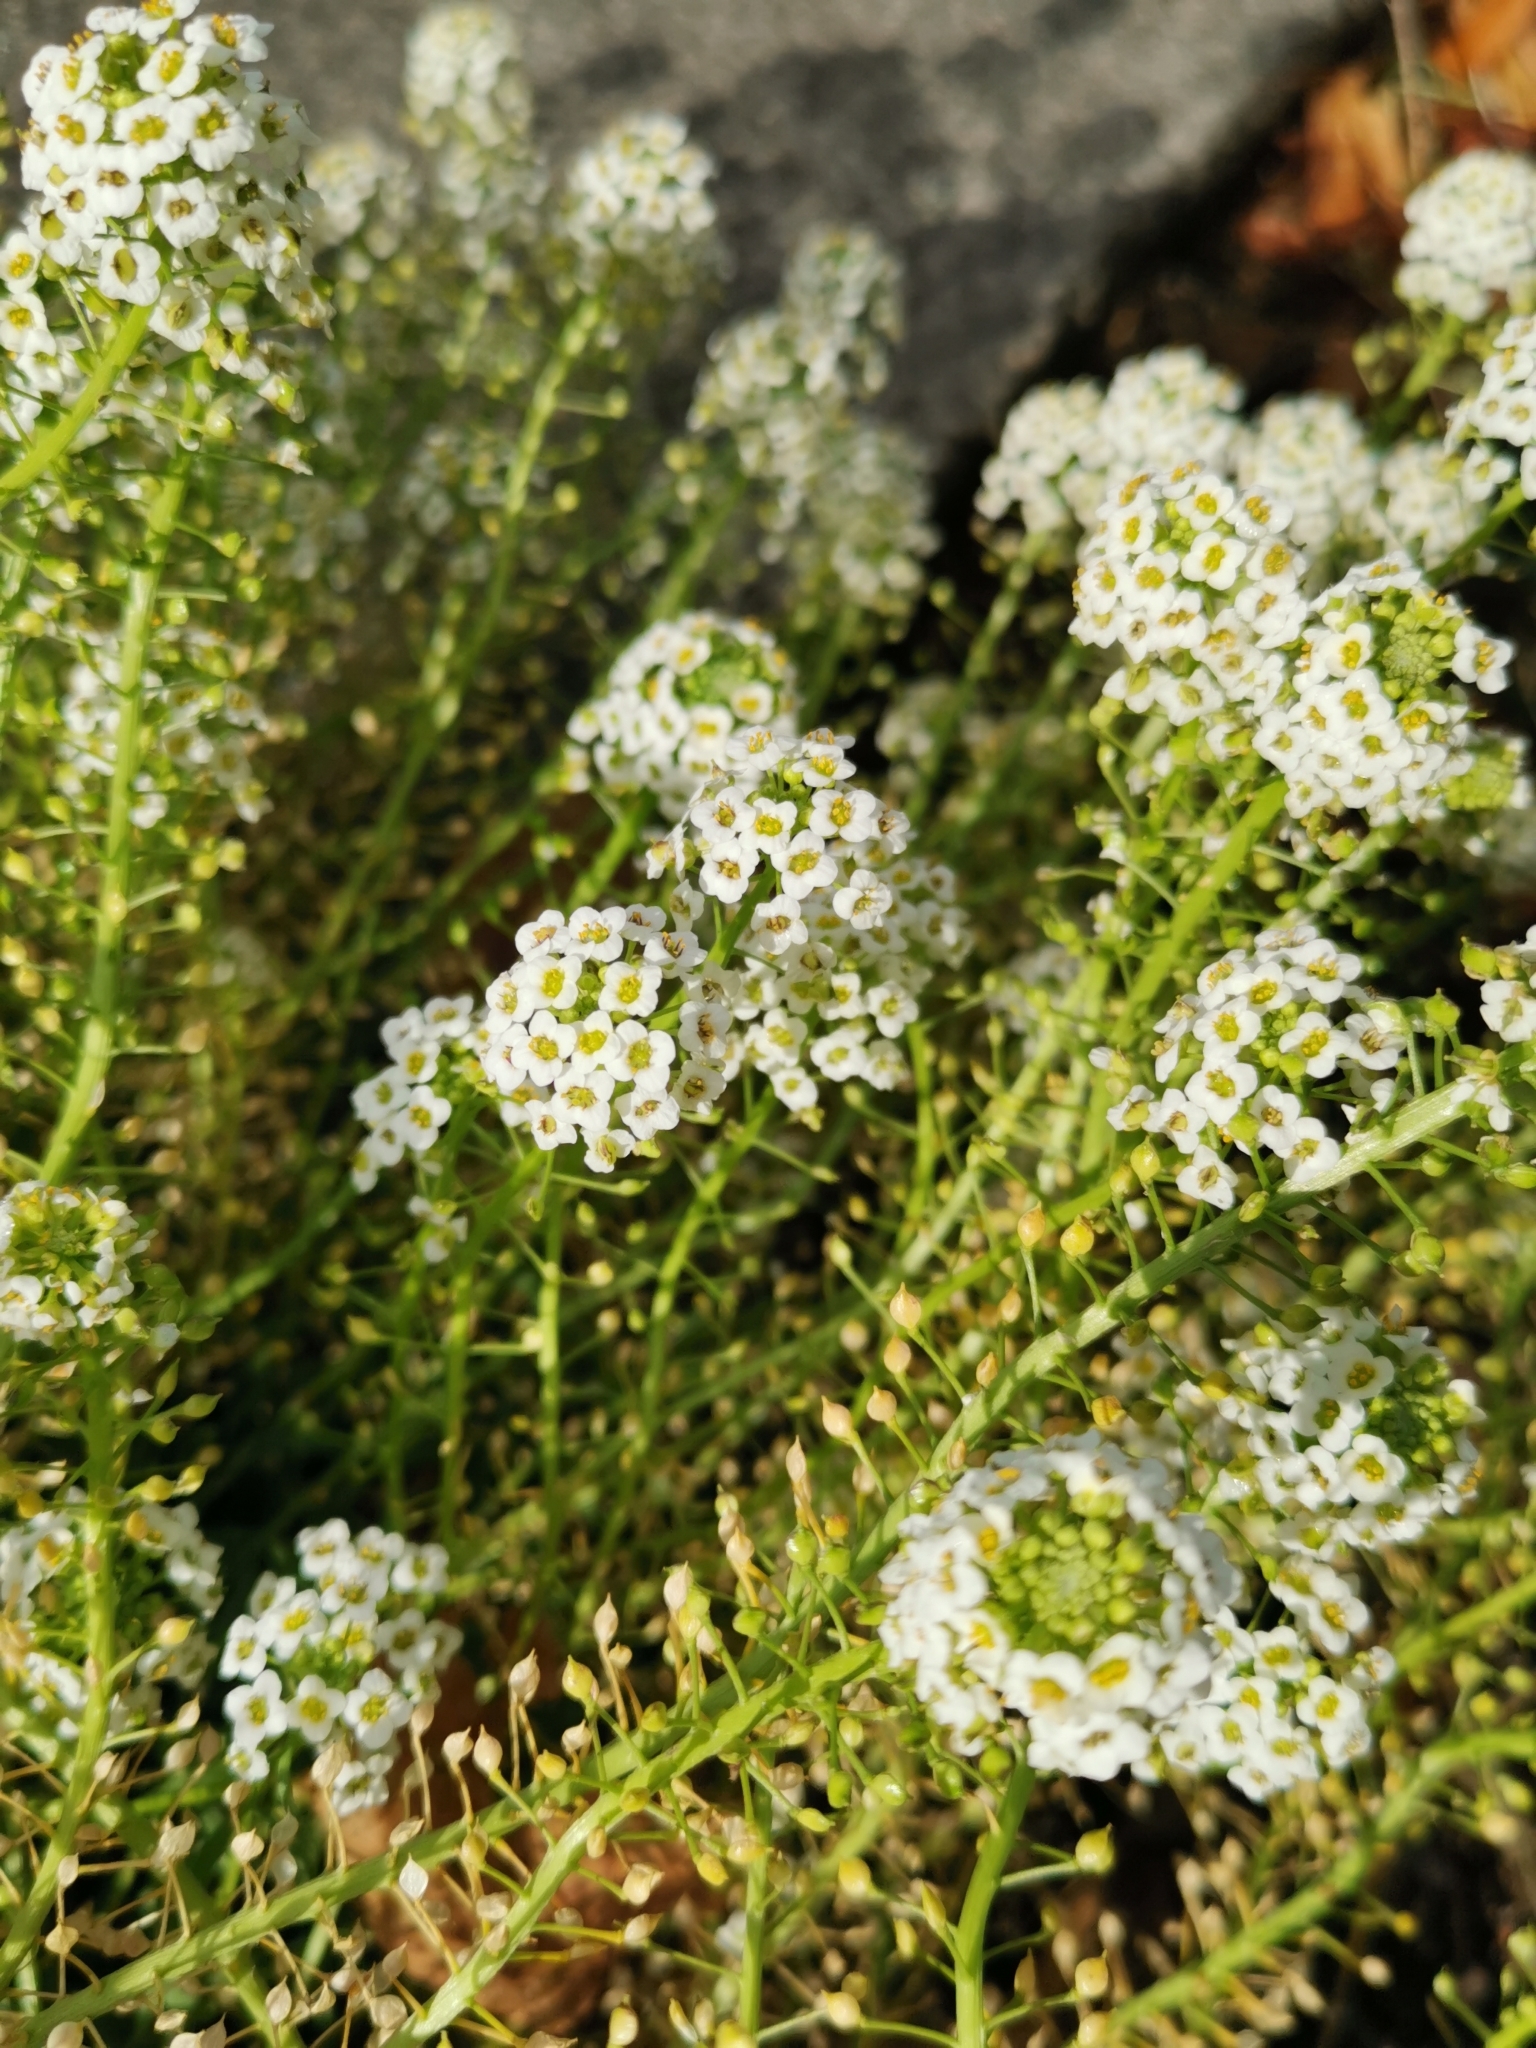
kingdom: Plantae
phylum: Tracheophyta
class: Magnoliopsida
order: Brassicales
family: Brassicaceae
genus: Lobularia
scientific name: Lobularia maritima
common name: Sweet alison
